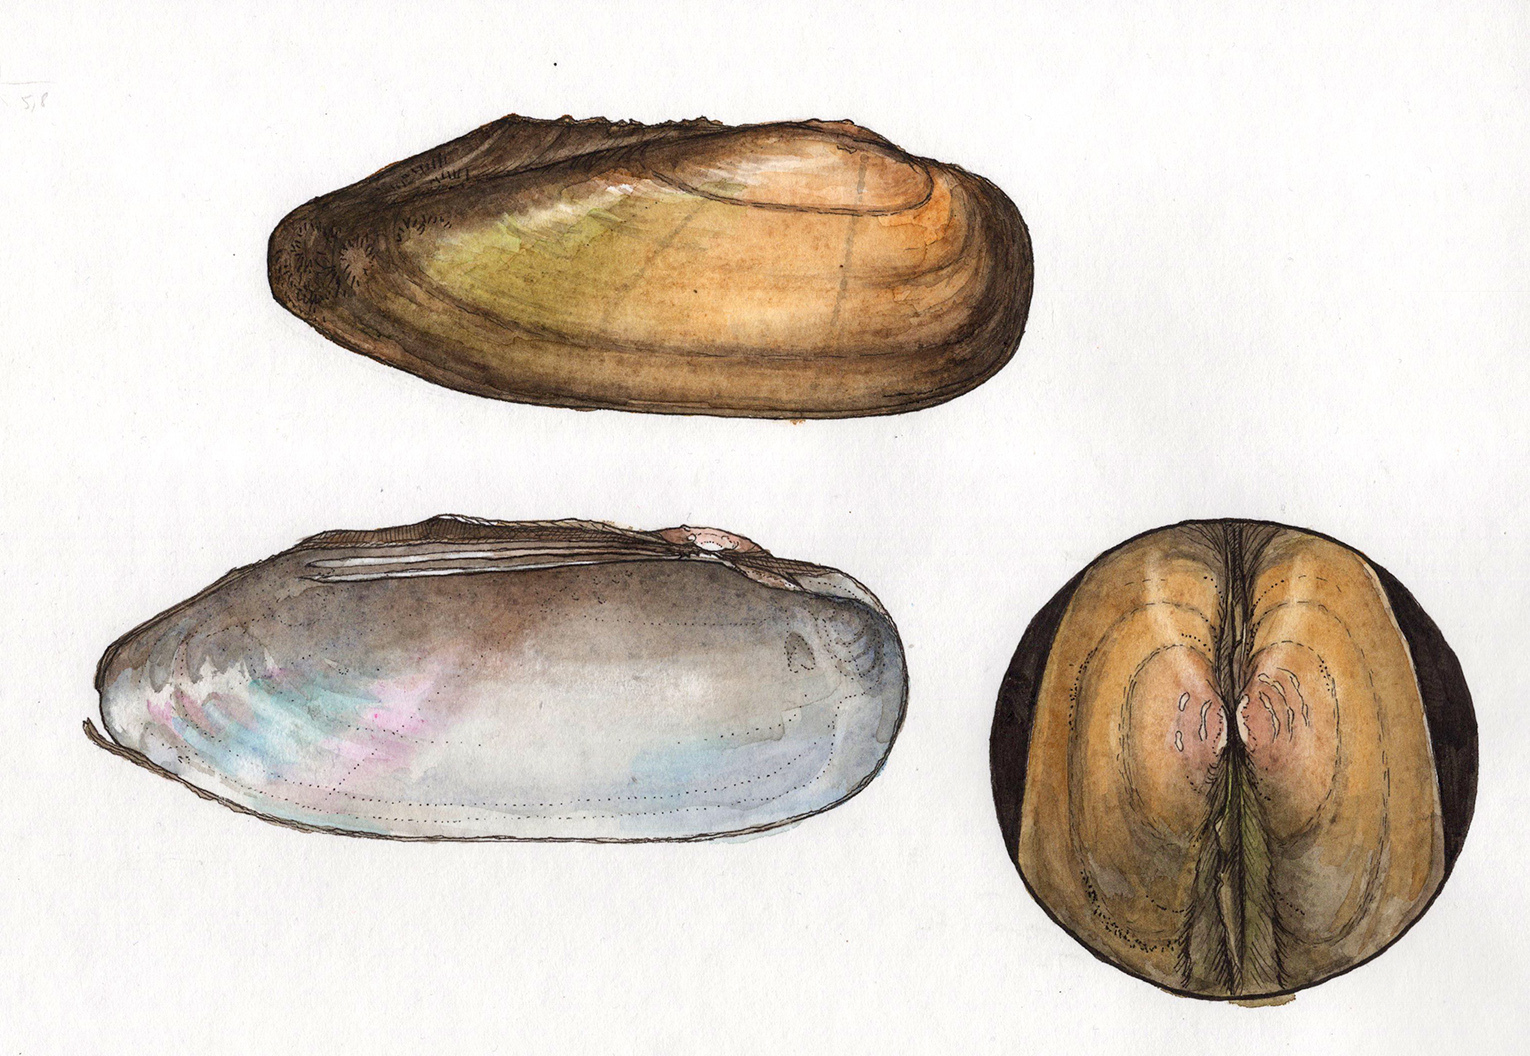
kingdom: Animalia
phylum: Mollusca
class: Bivalvia
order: Unionida
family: Unionidae
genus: Unio
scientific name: Unio pictorum
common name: Painter's mussel
